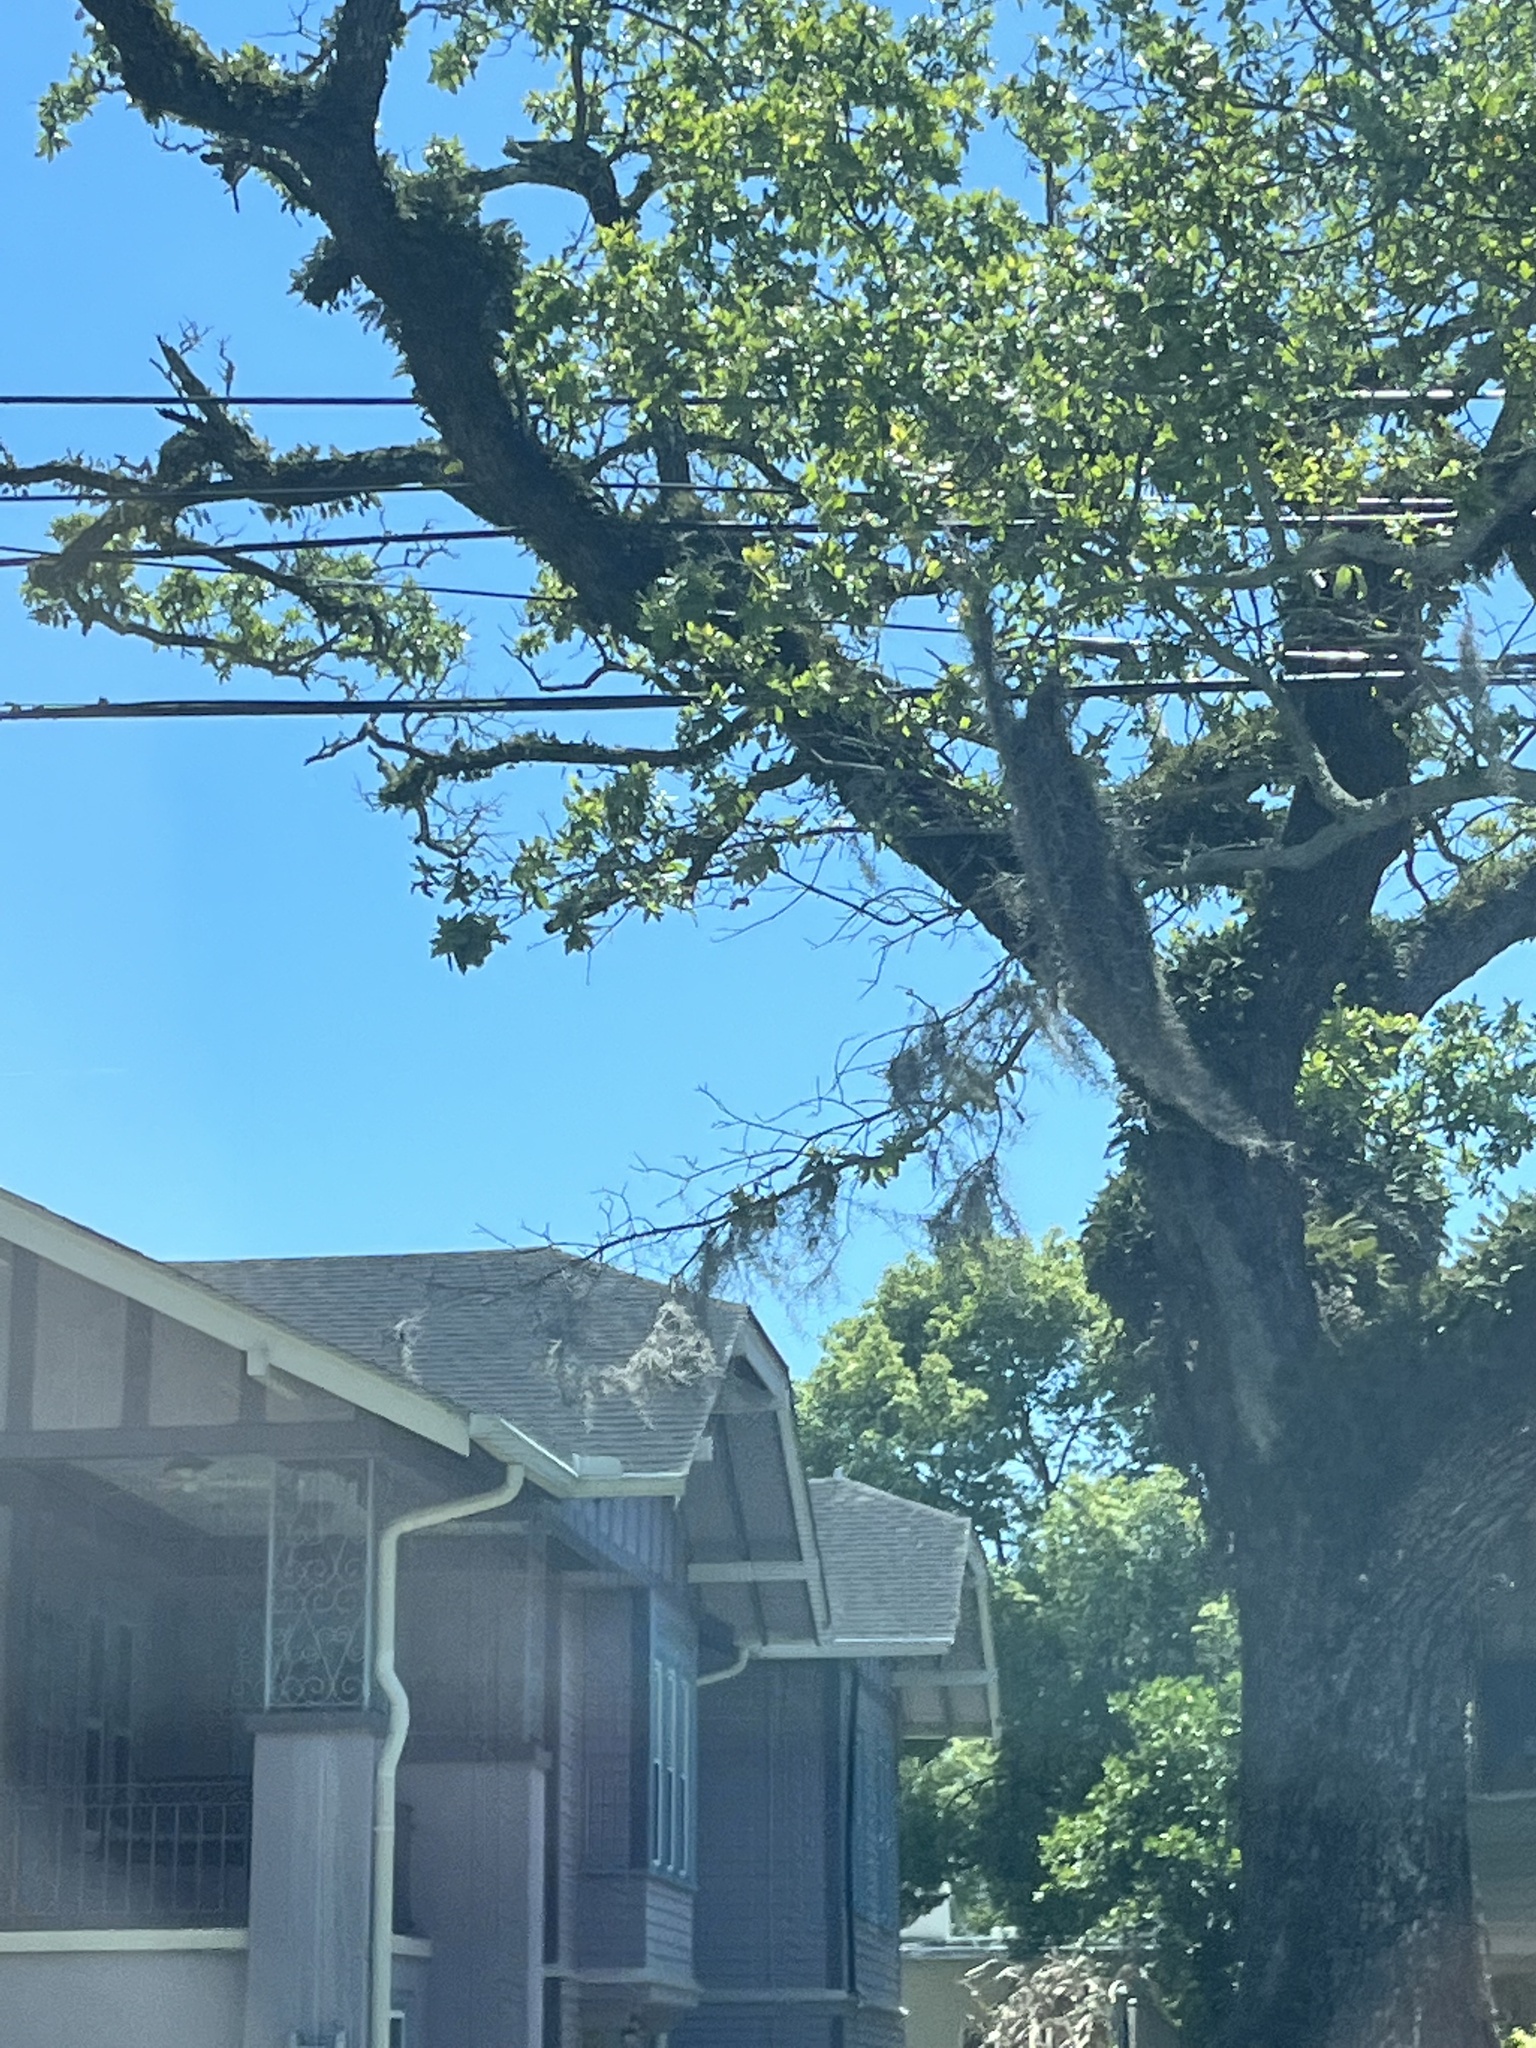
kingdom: Plantae
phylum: Tracheophyta
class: Liliopsida
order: Poales
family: Bromeliaceae
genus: Tillandsia
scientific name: Tillandsia usneoides
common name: Spanish moss
